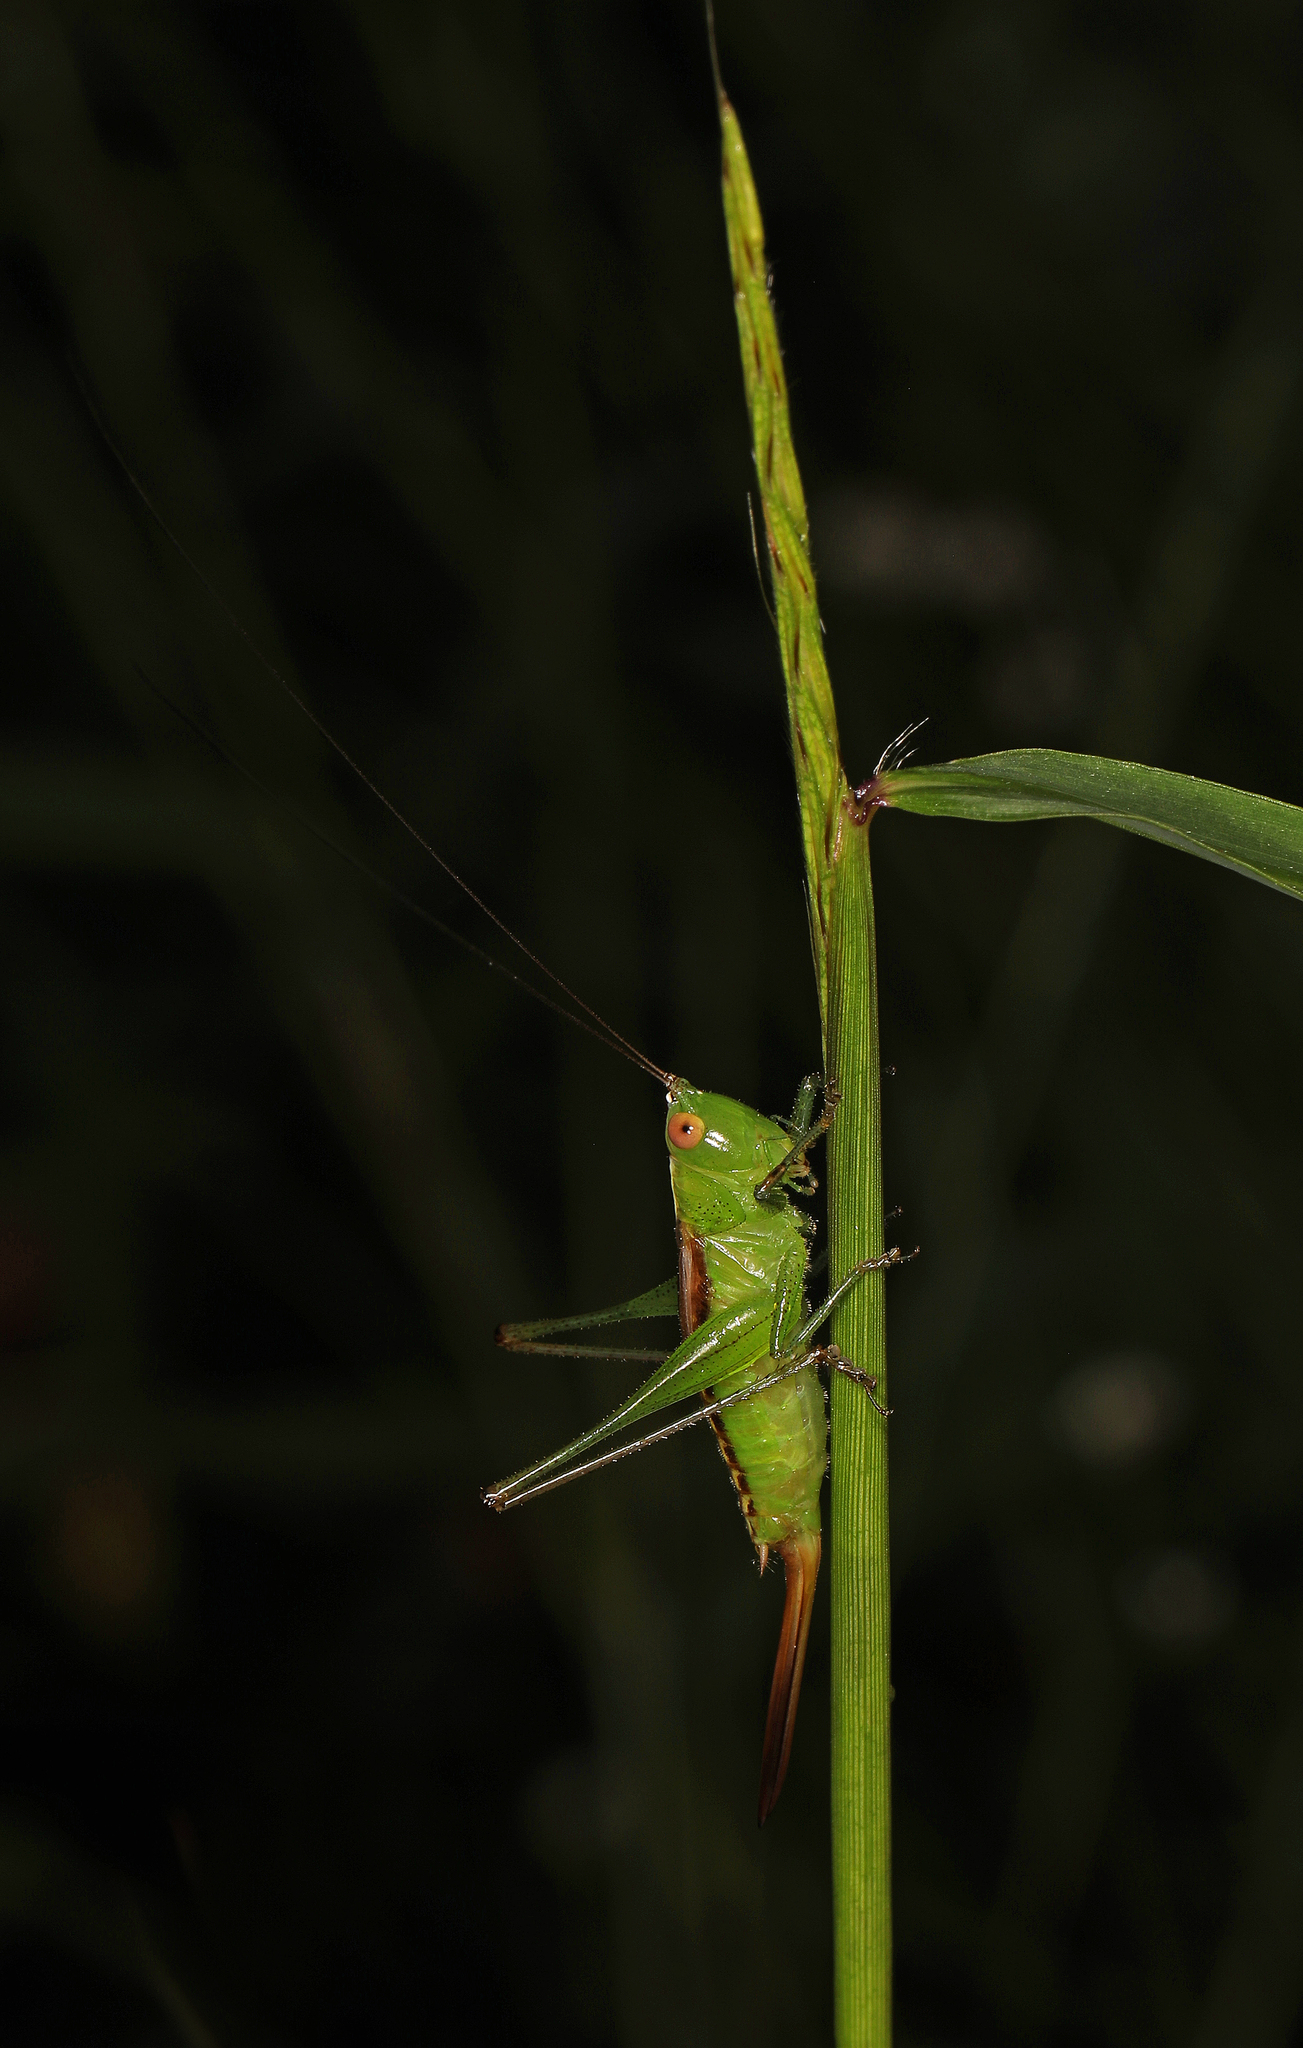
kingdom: Animalia
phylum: Arthropoda
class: Insecta
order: Orthoptera
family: Tettigoniidae
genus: Conocephalus
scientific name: Conocephalus brevipennis
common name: Short-winged meadow katydid
